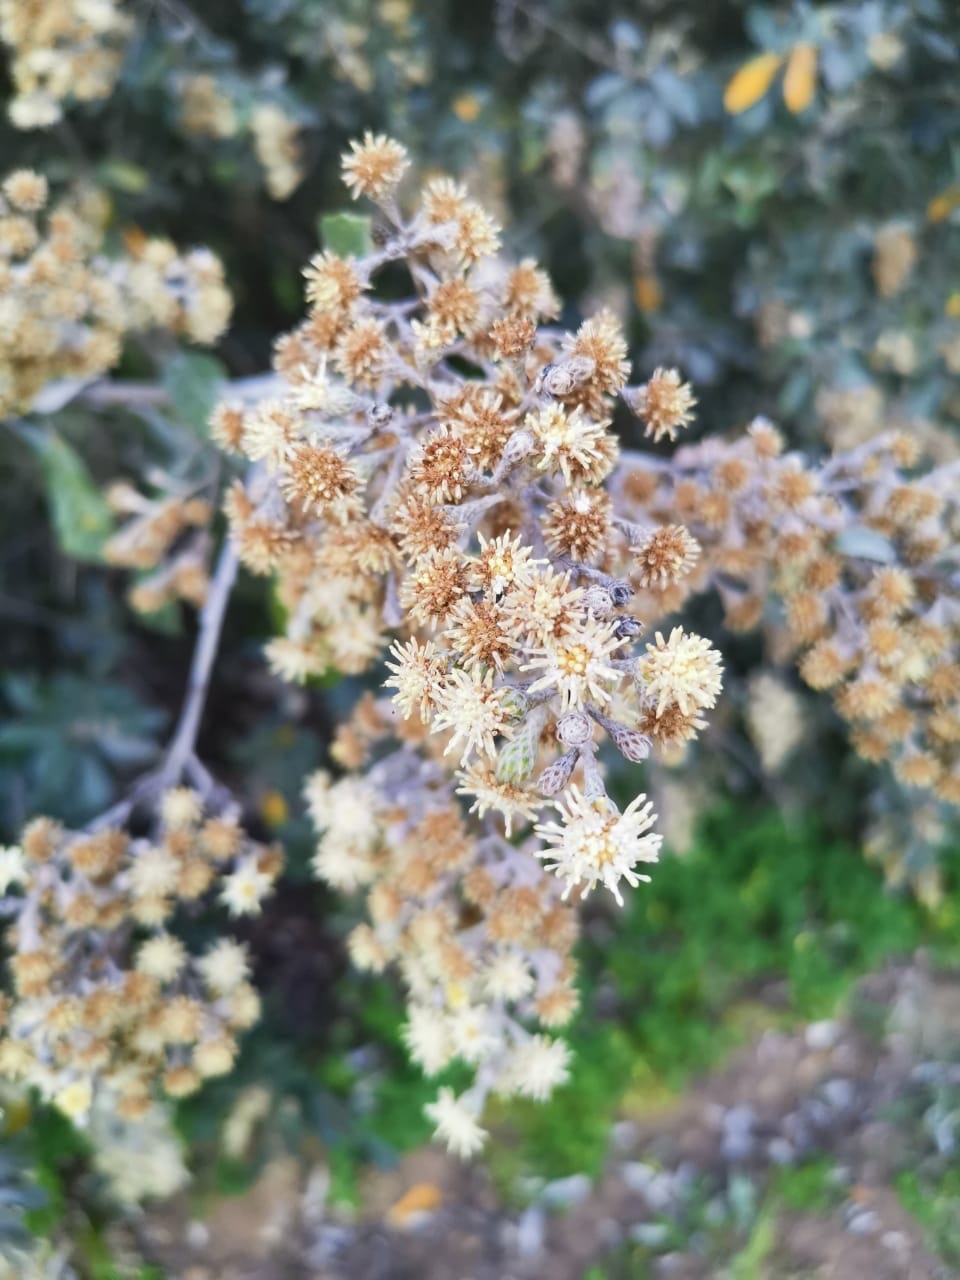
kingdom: Plantae
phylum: Tracheophyta
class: Magnoliopsida
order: Asterales
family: Asteraceae
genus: Tarchonanthus
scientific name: Tarchonanthus littoralis
